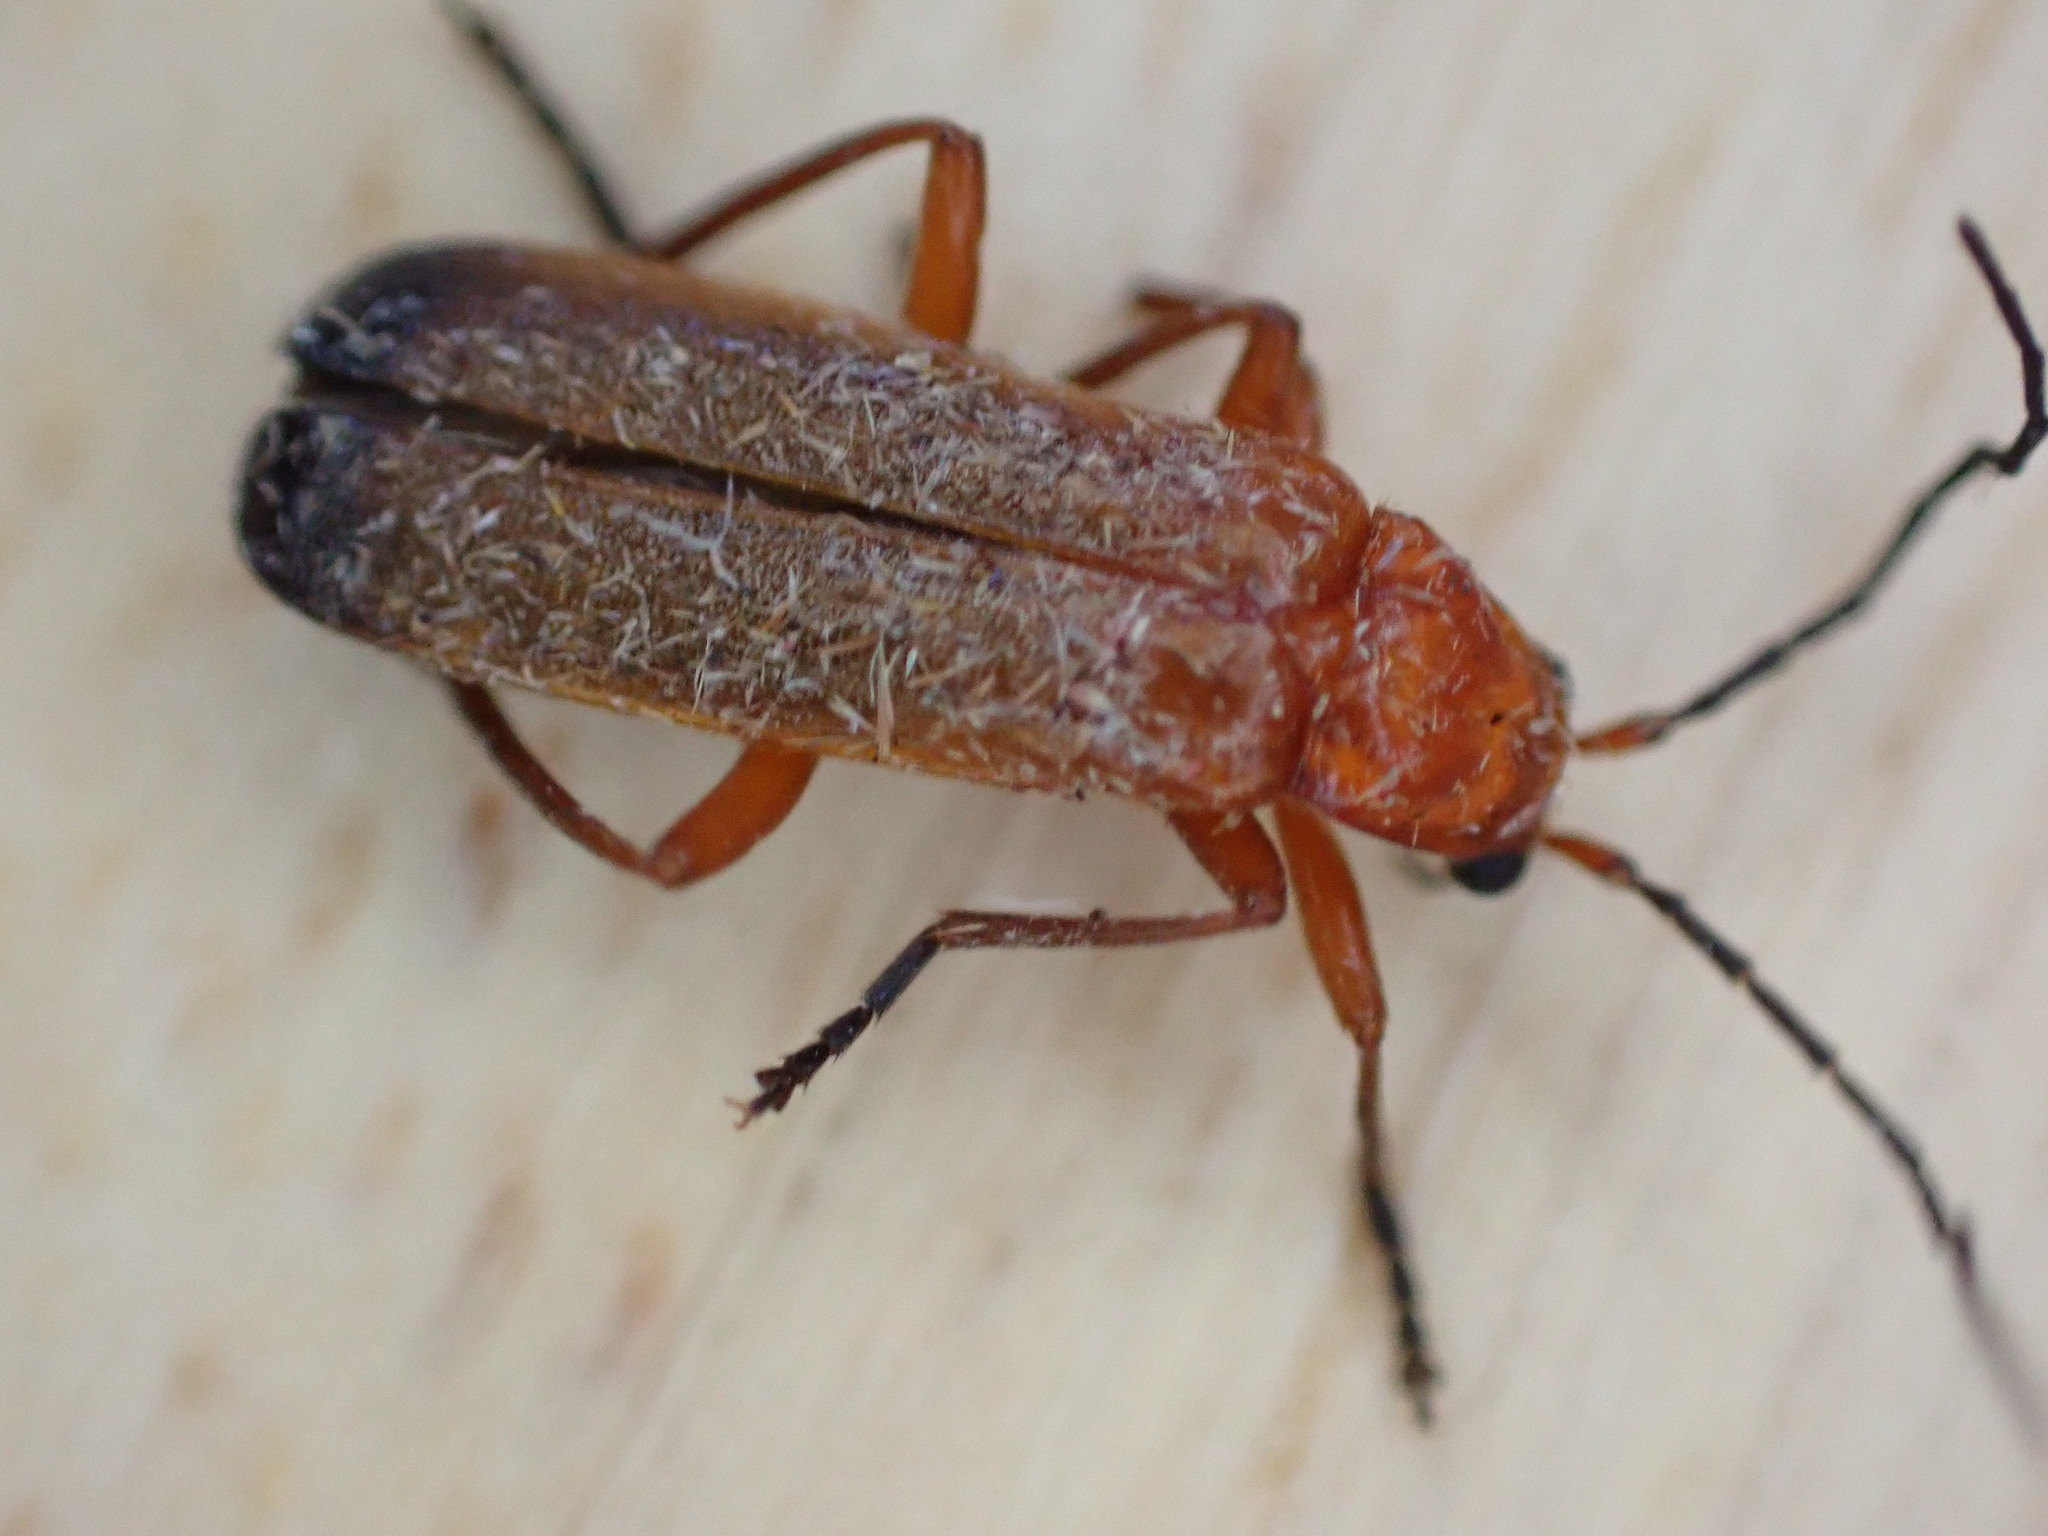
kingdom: Animalia
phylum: Arthropoda
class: Insecta
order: Coleoptera
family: Cantharidae
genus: Rhagonycha
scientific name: Rhagonycha fulva
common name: Common red soldier beetle
